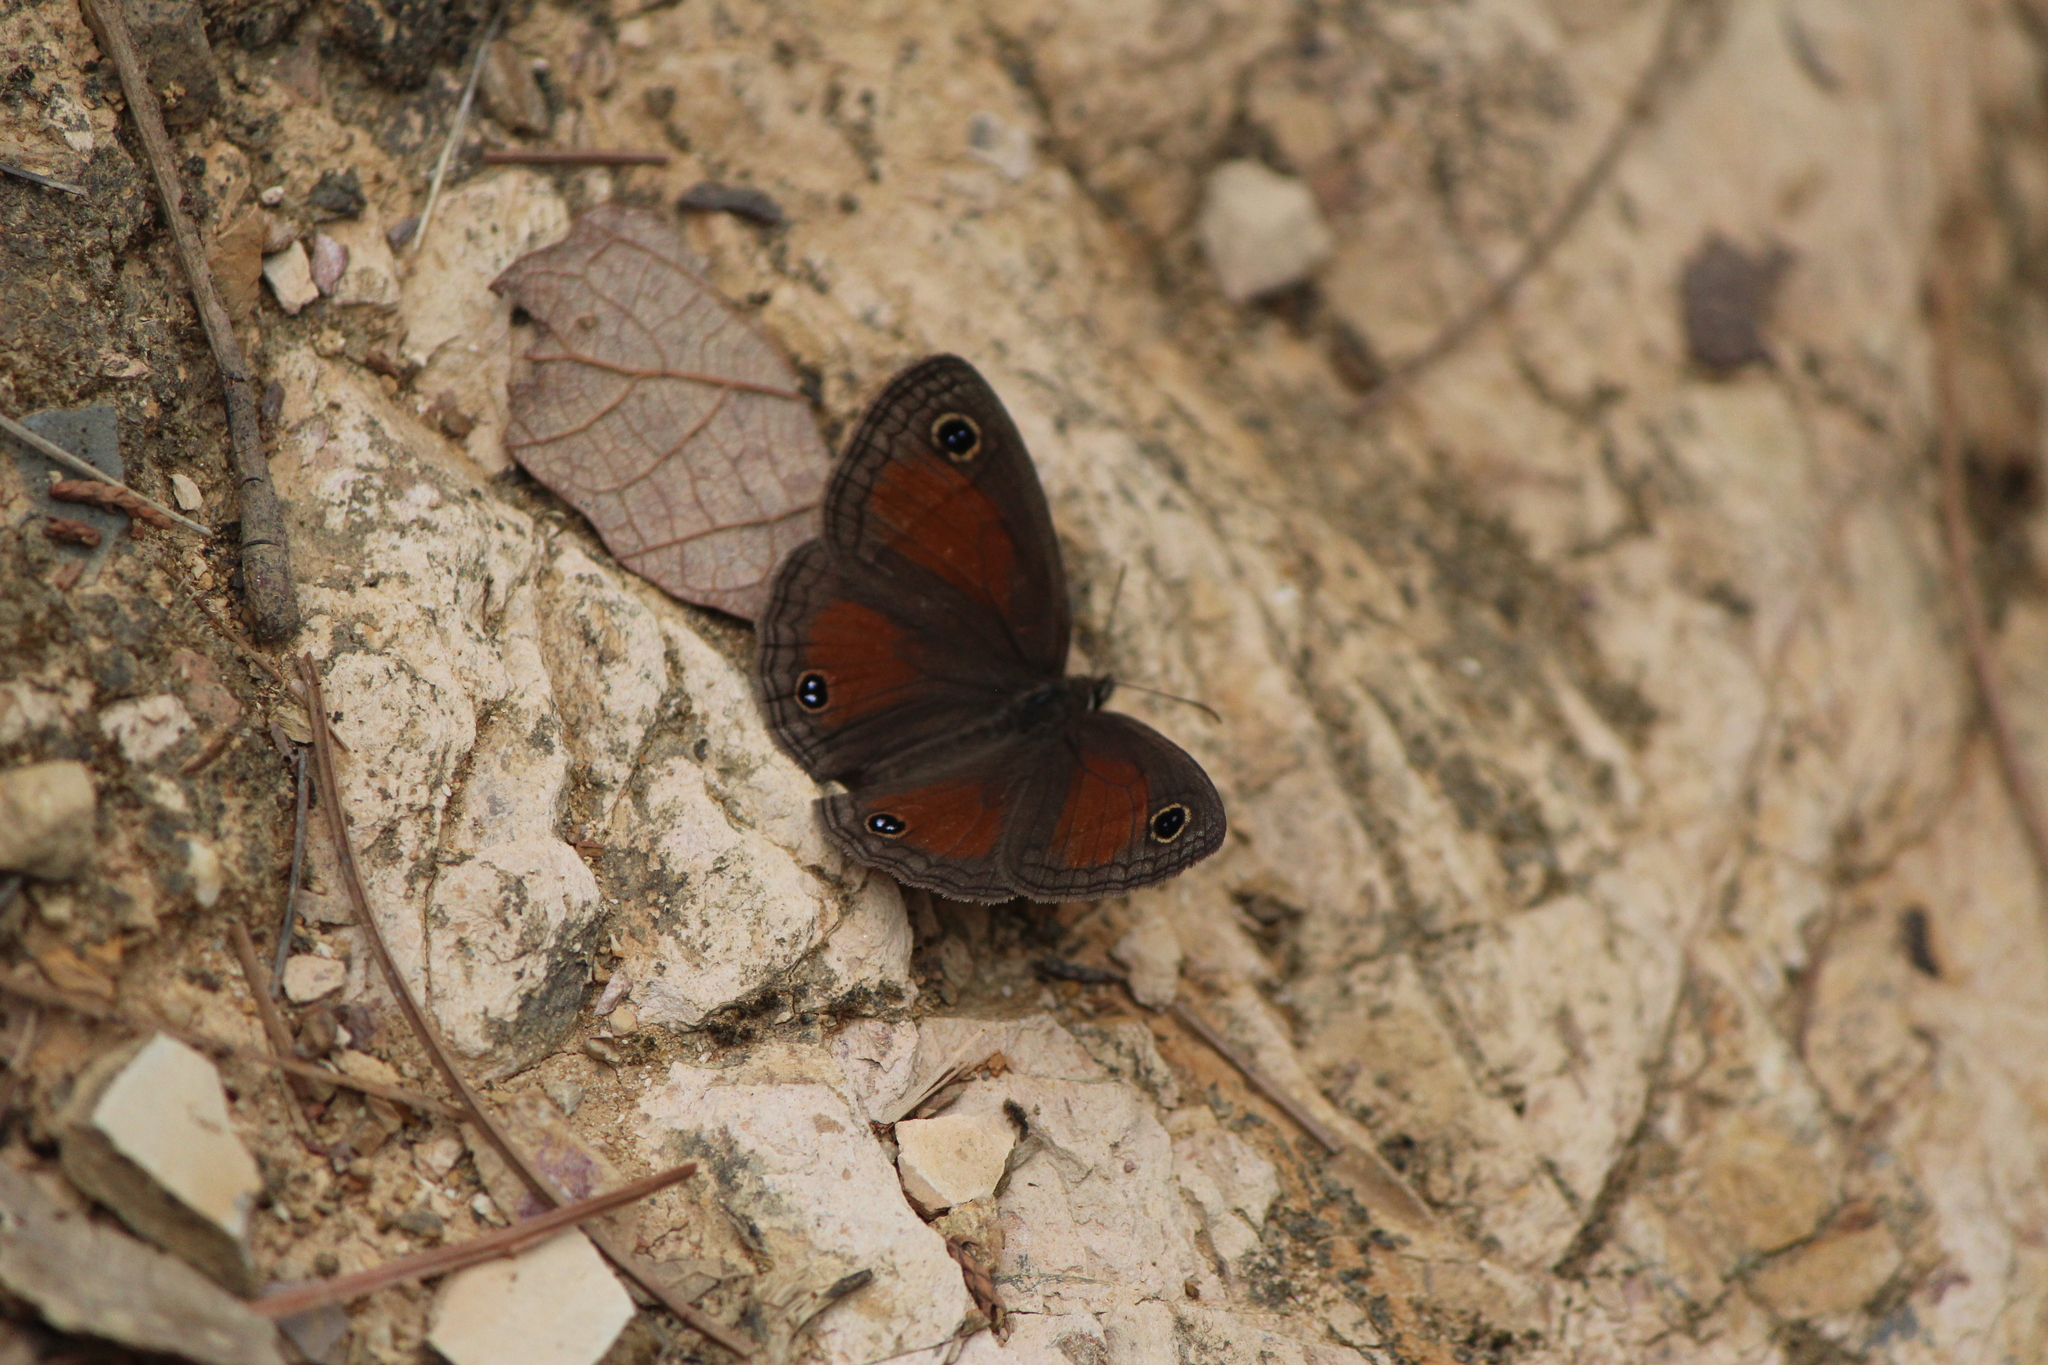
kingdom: Animalia
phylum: Arthropoda
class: Insecta
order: Lepidoptera
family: Nymphalidae
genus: Euptychia
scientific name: Euptychia Cissia rubricata
